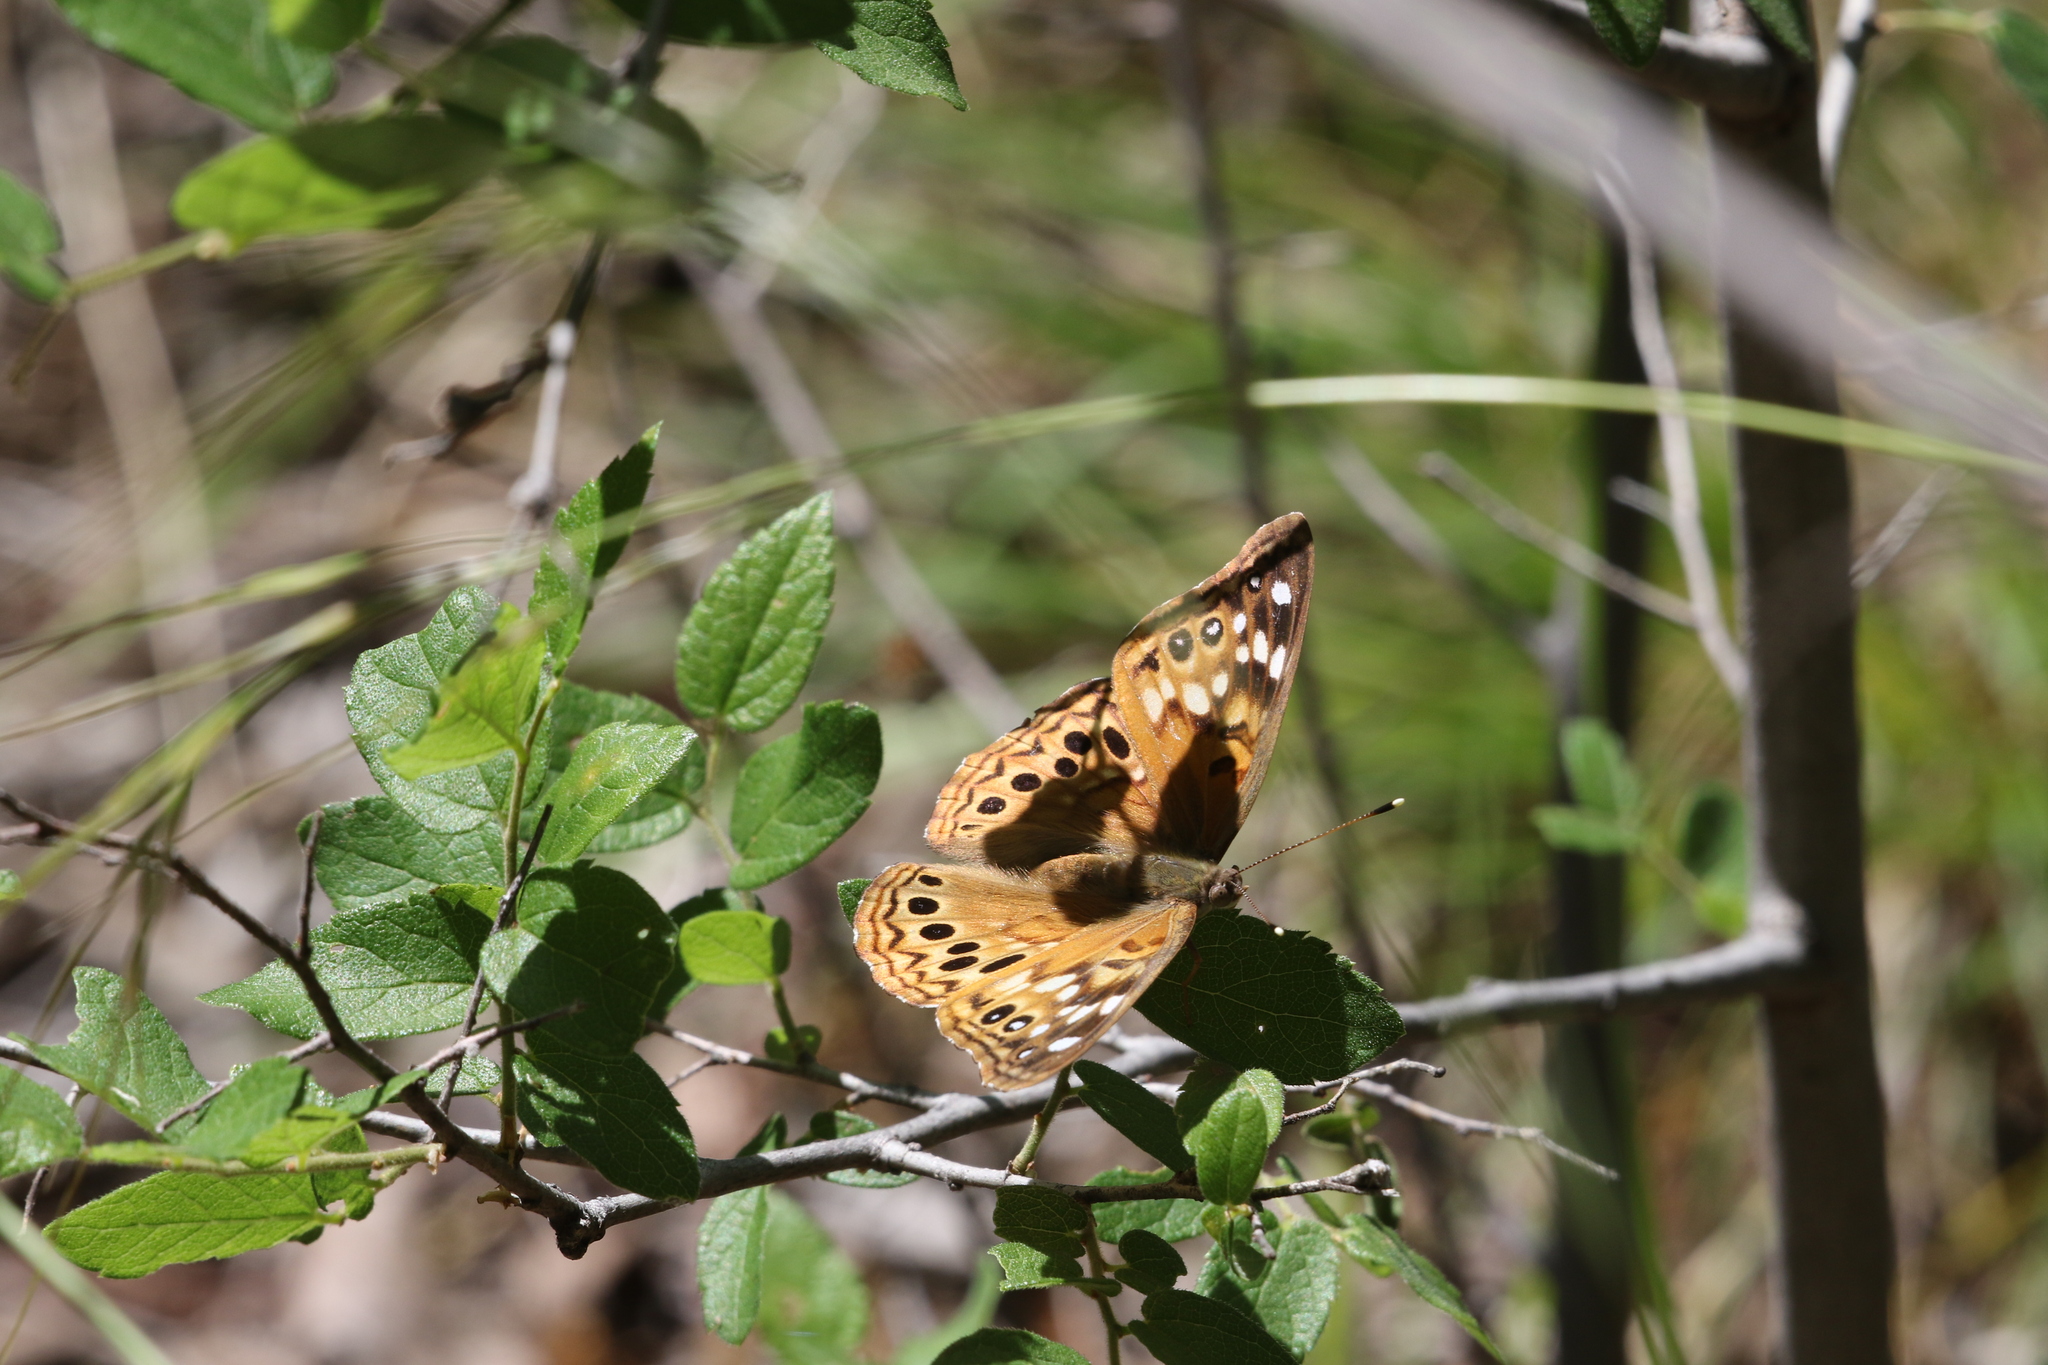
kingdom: Animalia
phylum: Arthropoda
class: Insecta
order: Lepidoptera
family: Nymphalidae
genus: Asterocampa
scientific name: Asterocampa celtis
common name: Hackberry emperor
